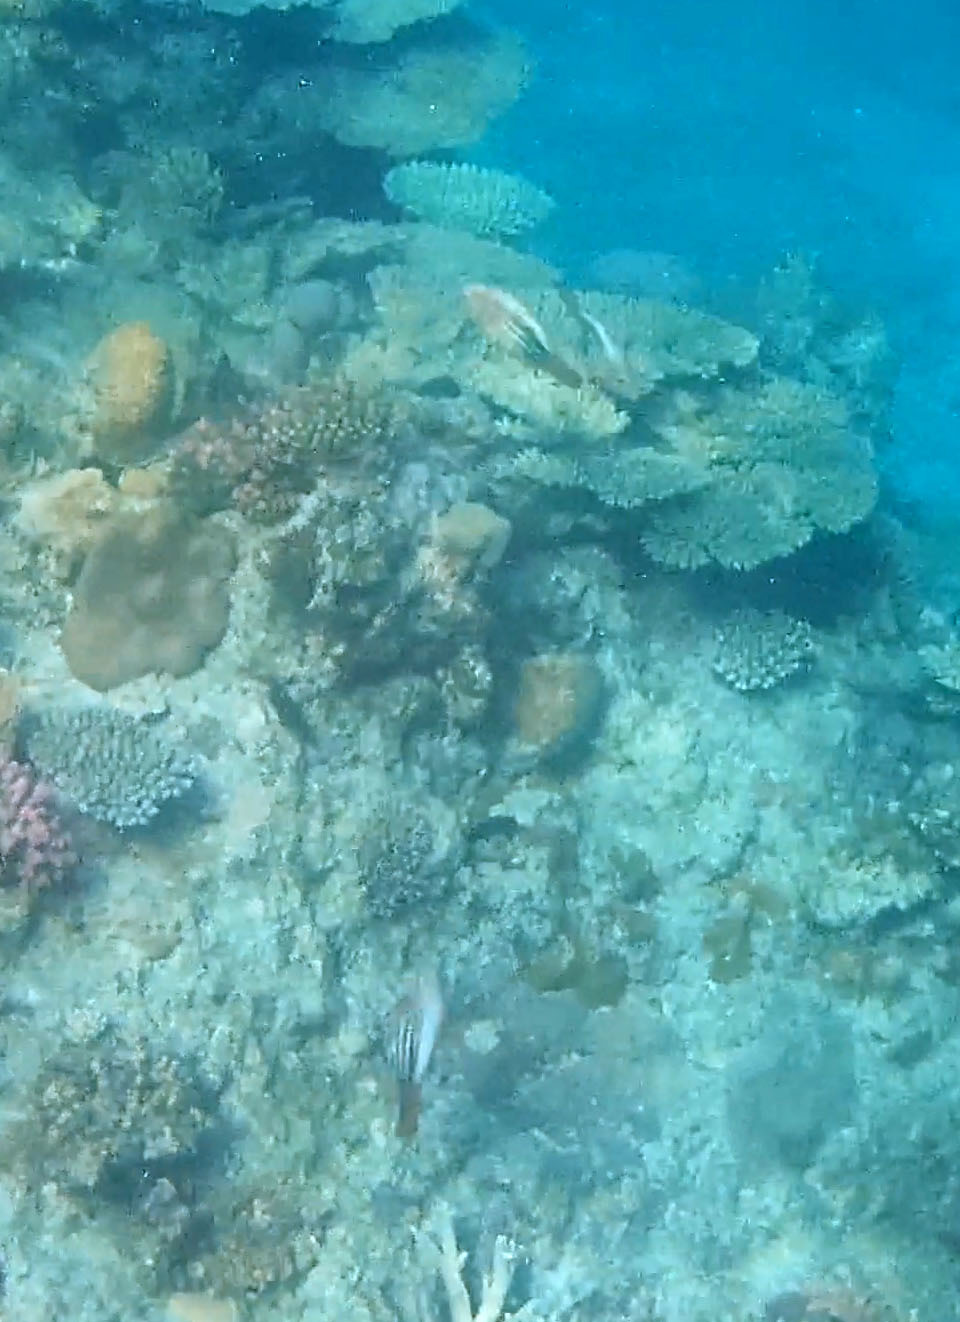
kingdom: Animalia
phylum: Chordata
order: Perciformes
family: Scaridae
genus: Scarus
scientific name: Scarus frenatus
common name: Bridled parrotfish
